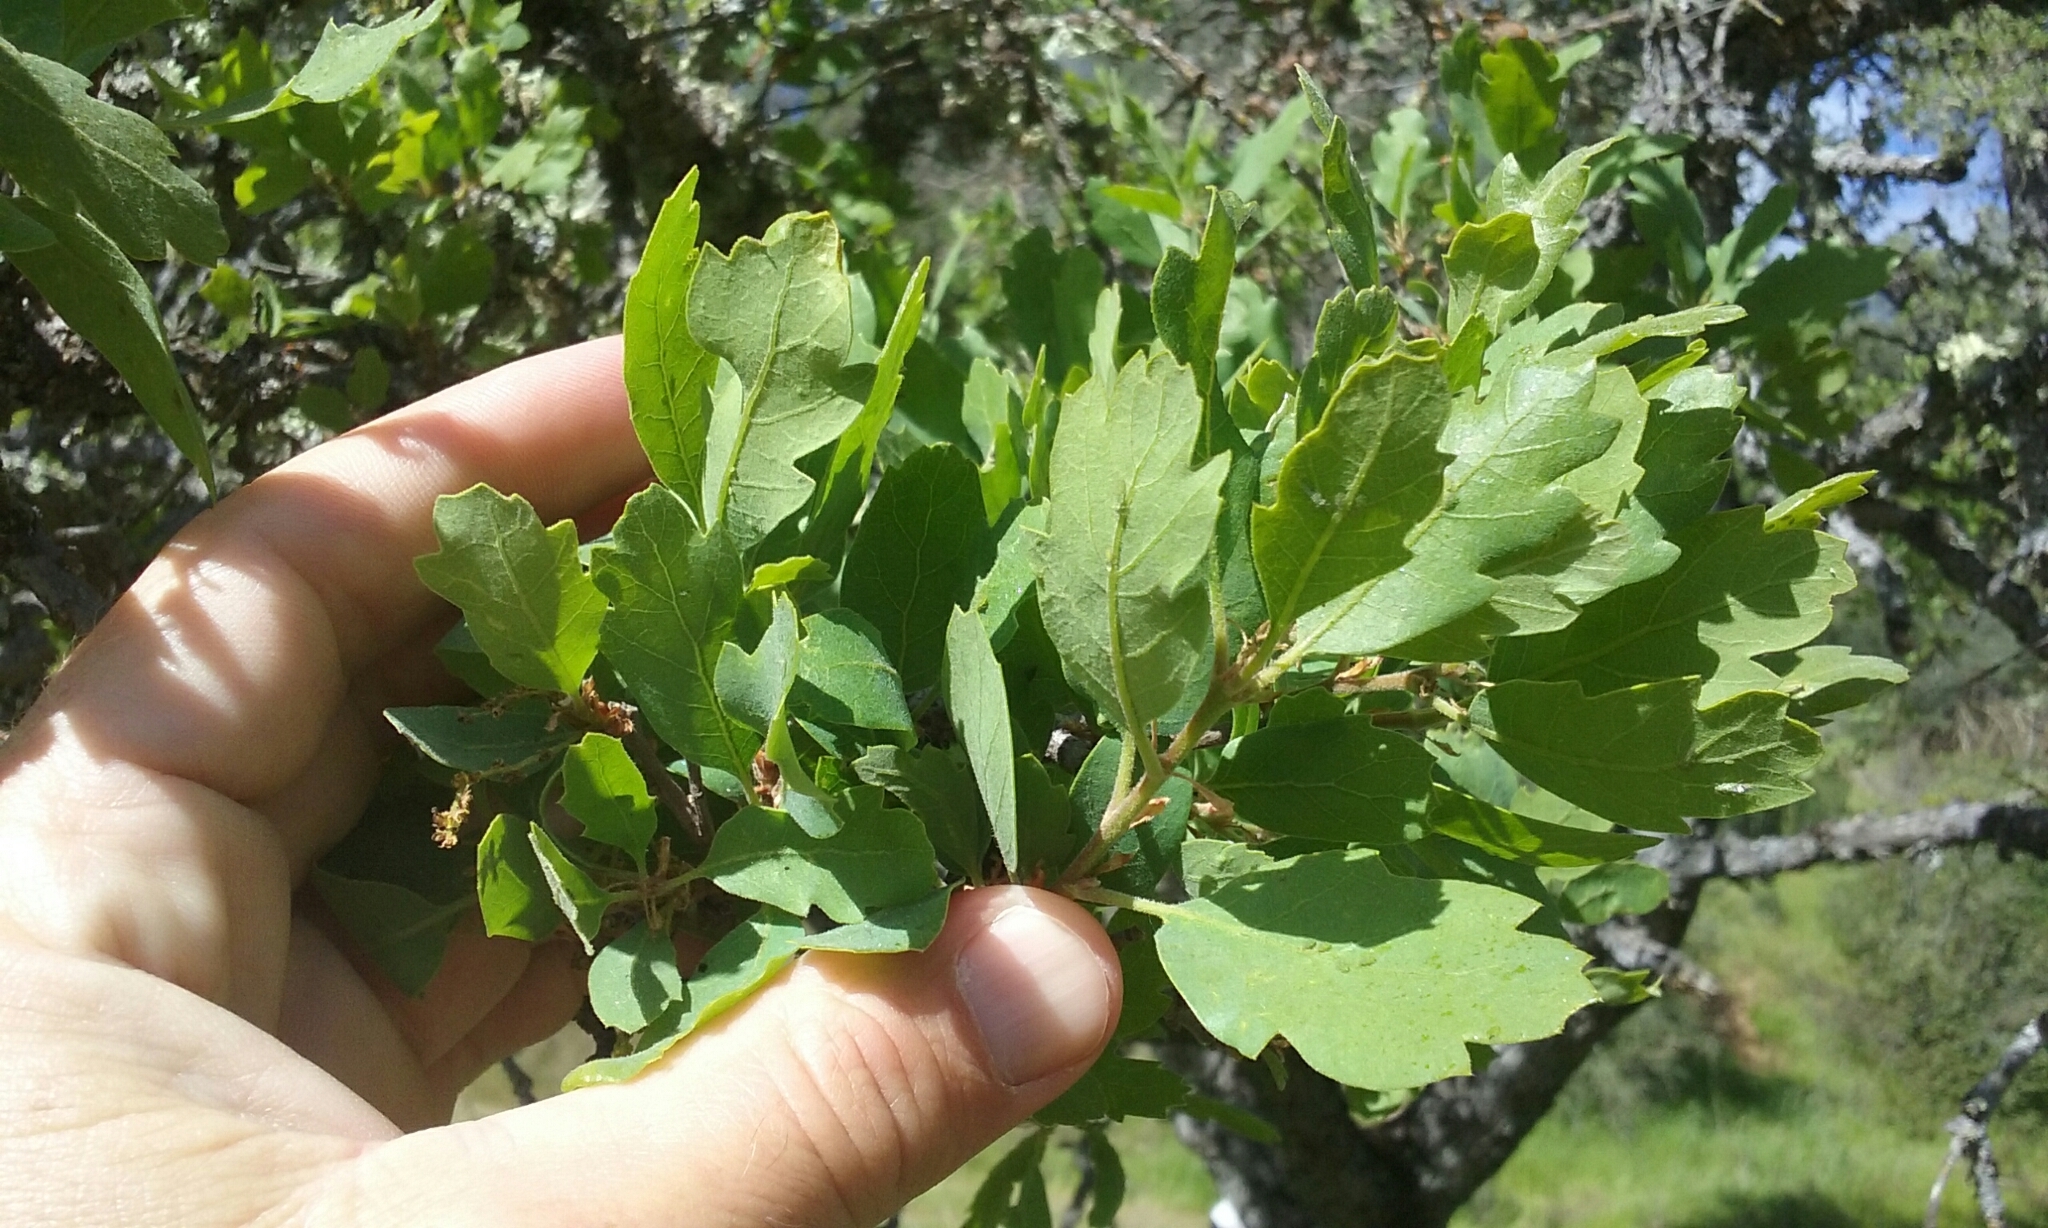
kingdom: Plantae
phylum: Tracheophyta
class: Magnoliopsida
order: Fagales
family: Fagaceae
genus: Quercus
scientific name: Quercus douglasii
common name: Blue oak
